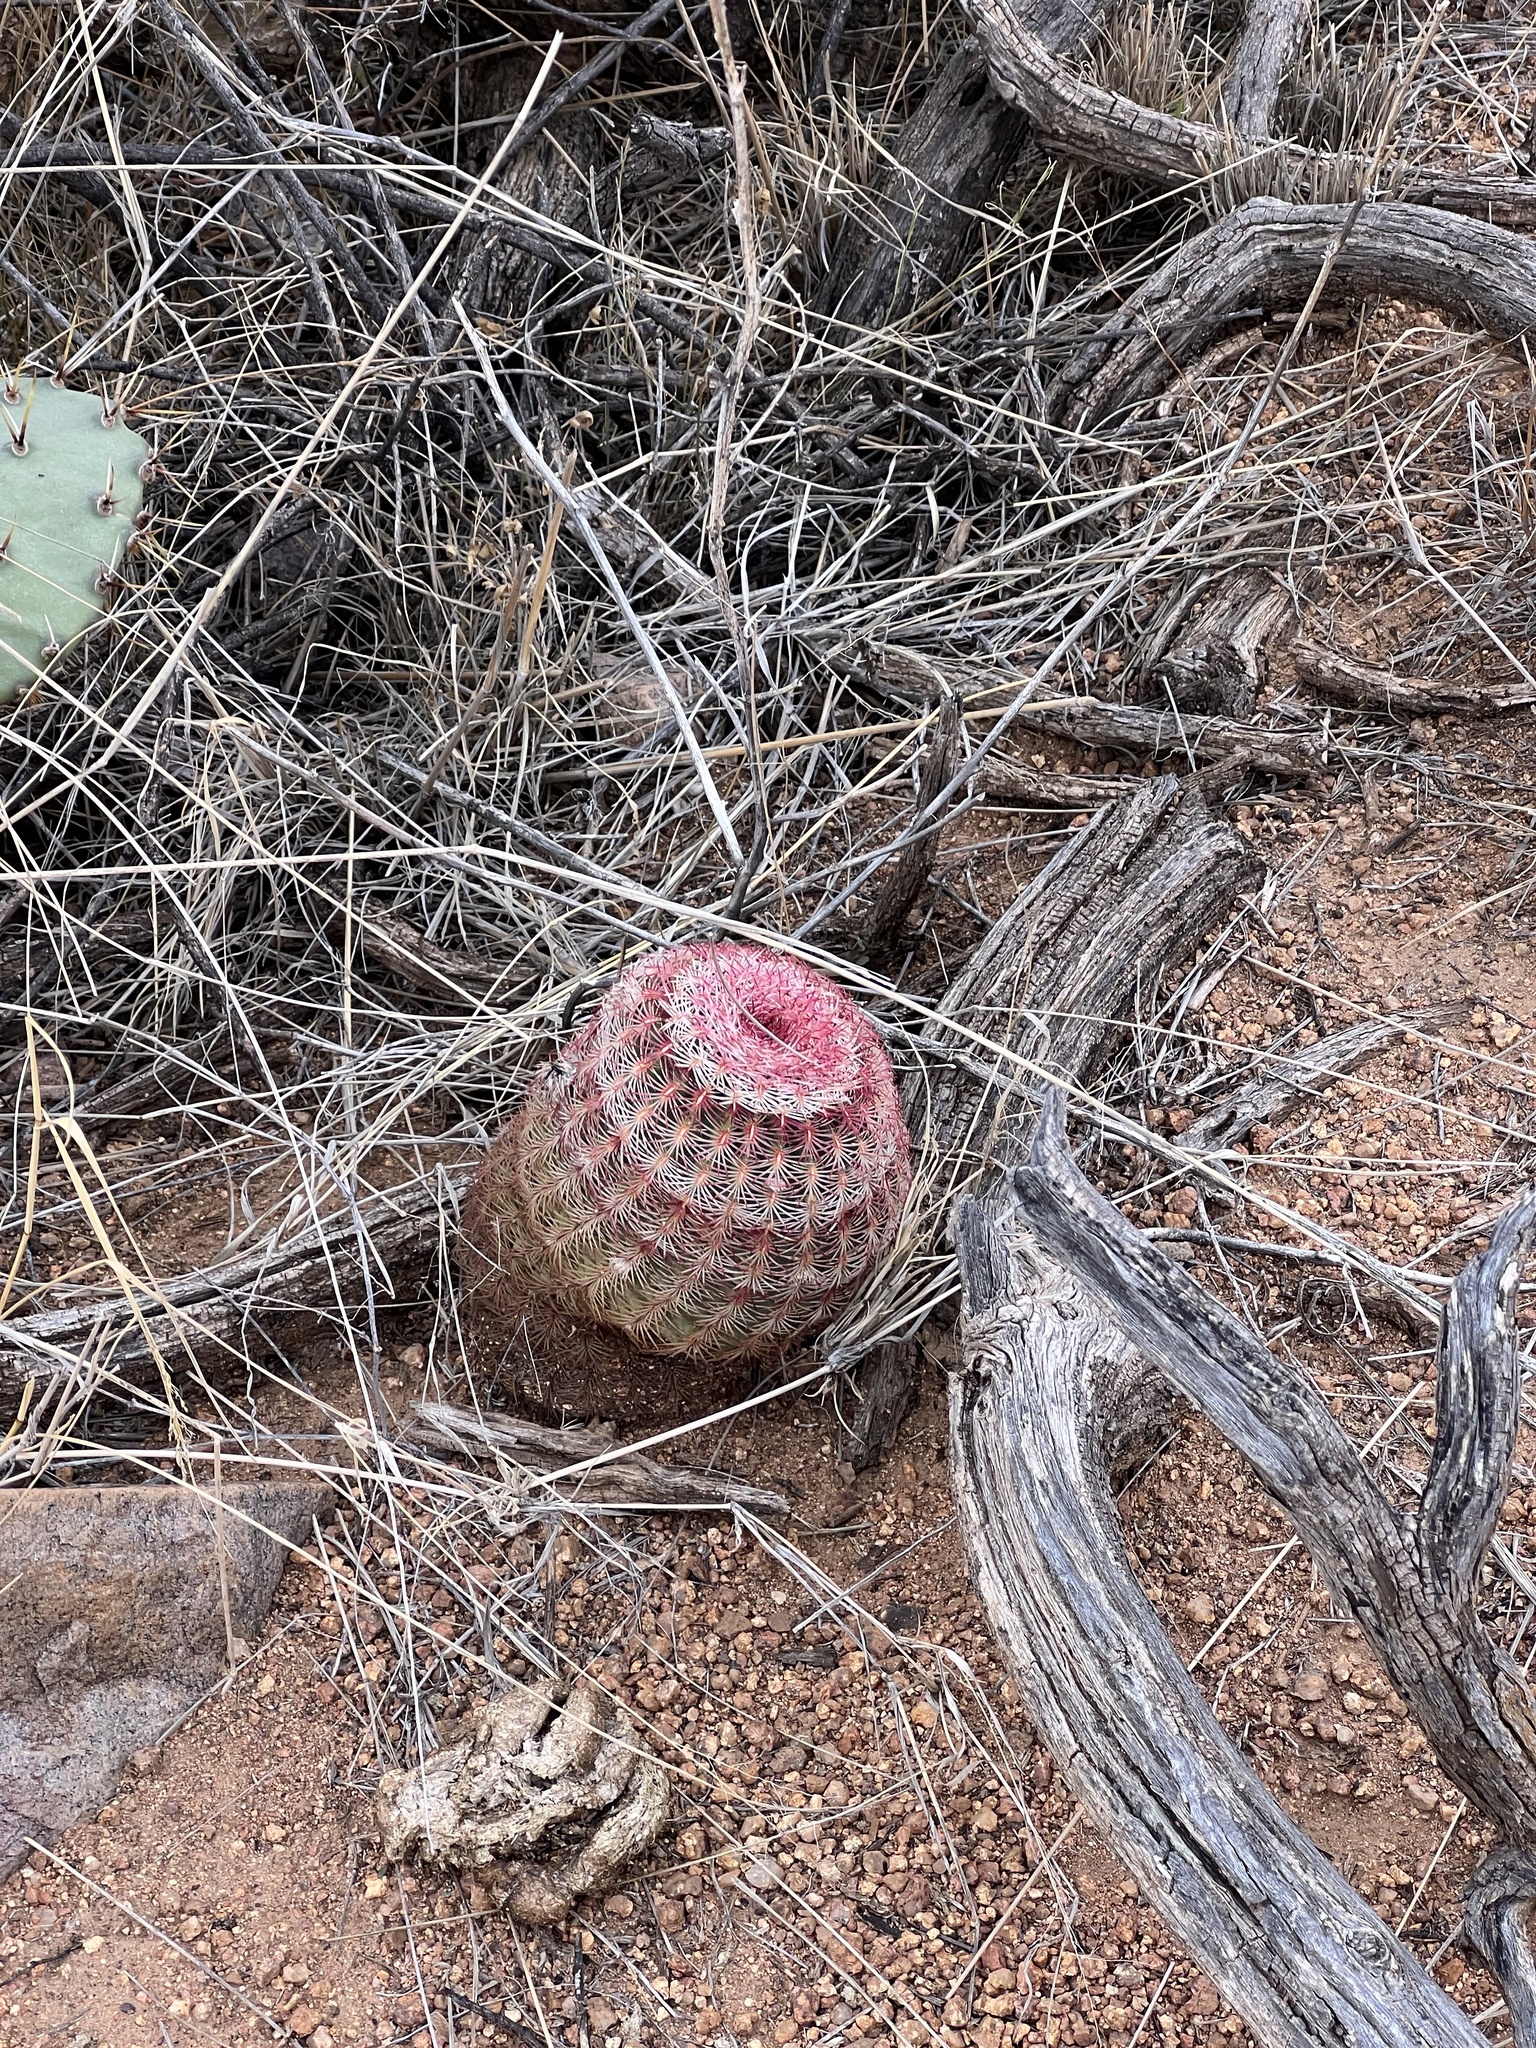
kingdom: Plantae
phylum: Tracheophyta
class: Magnoliopsida
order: Caryophyllales
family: Cactaceae
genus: Echinocereus
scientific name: Echinocereus rigidissimus
